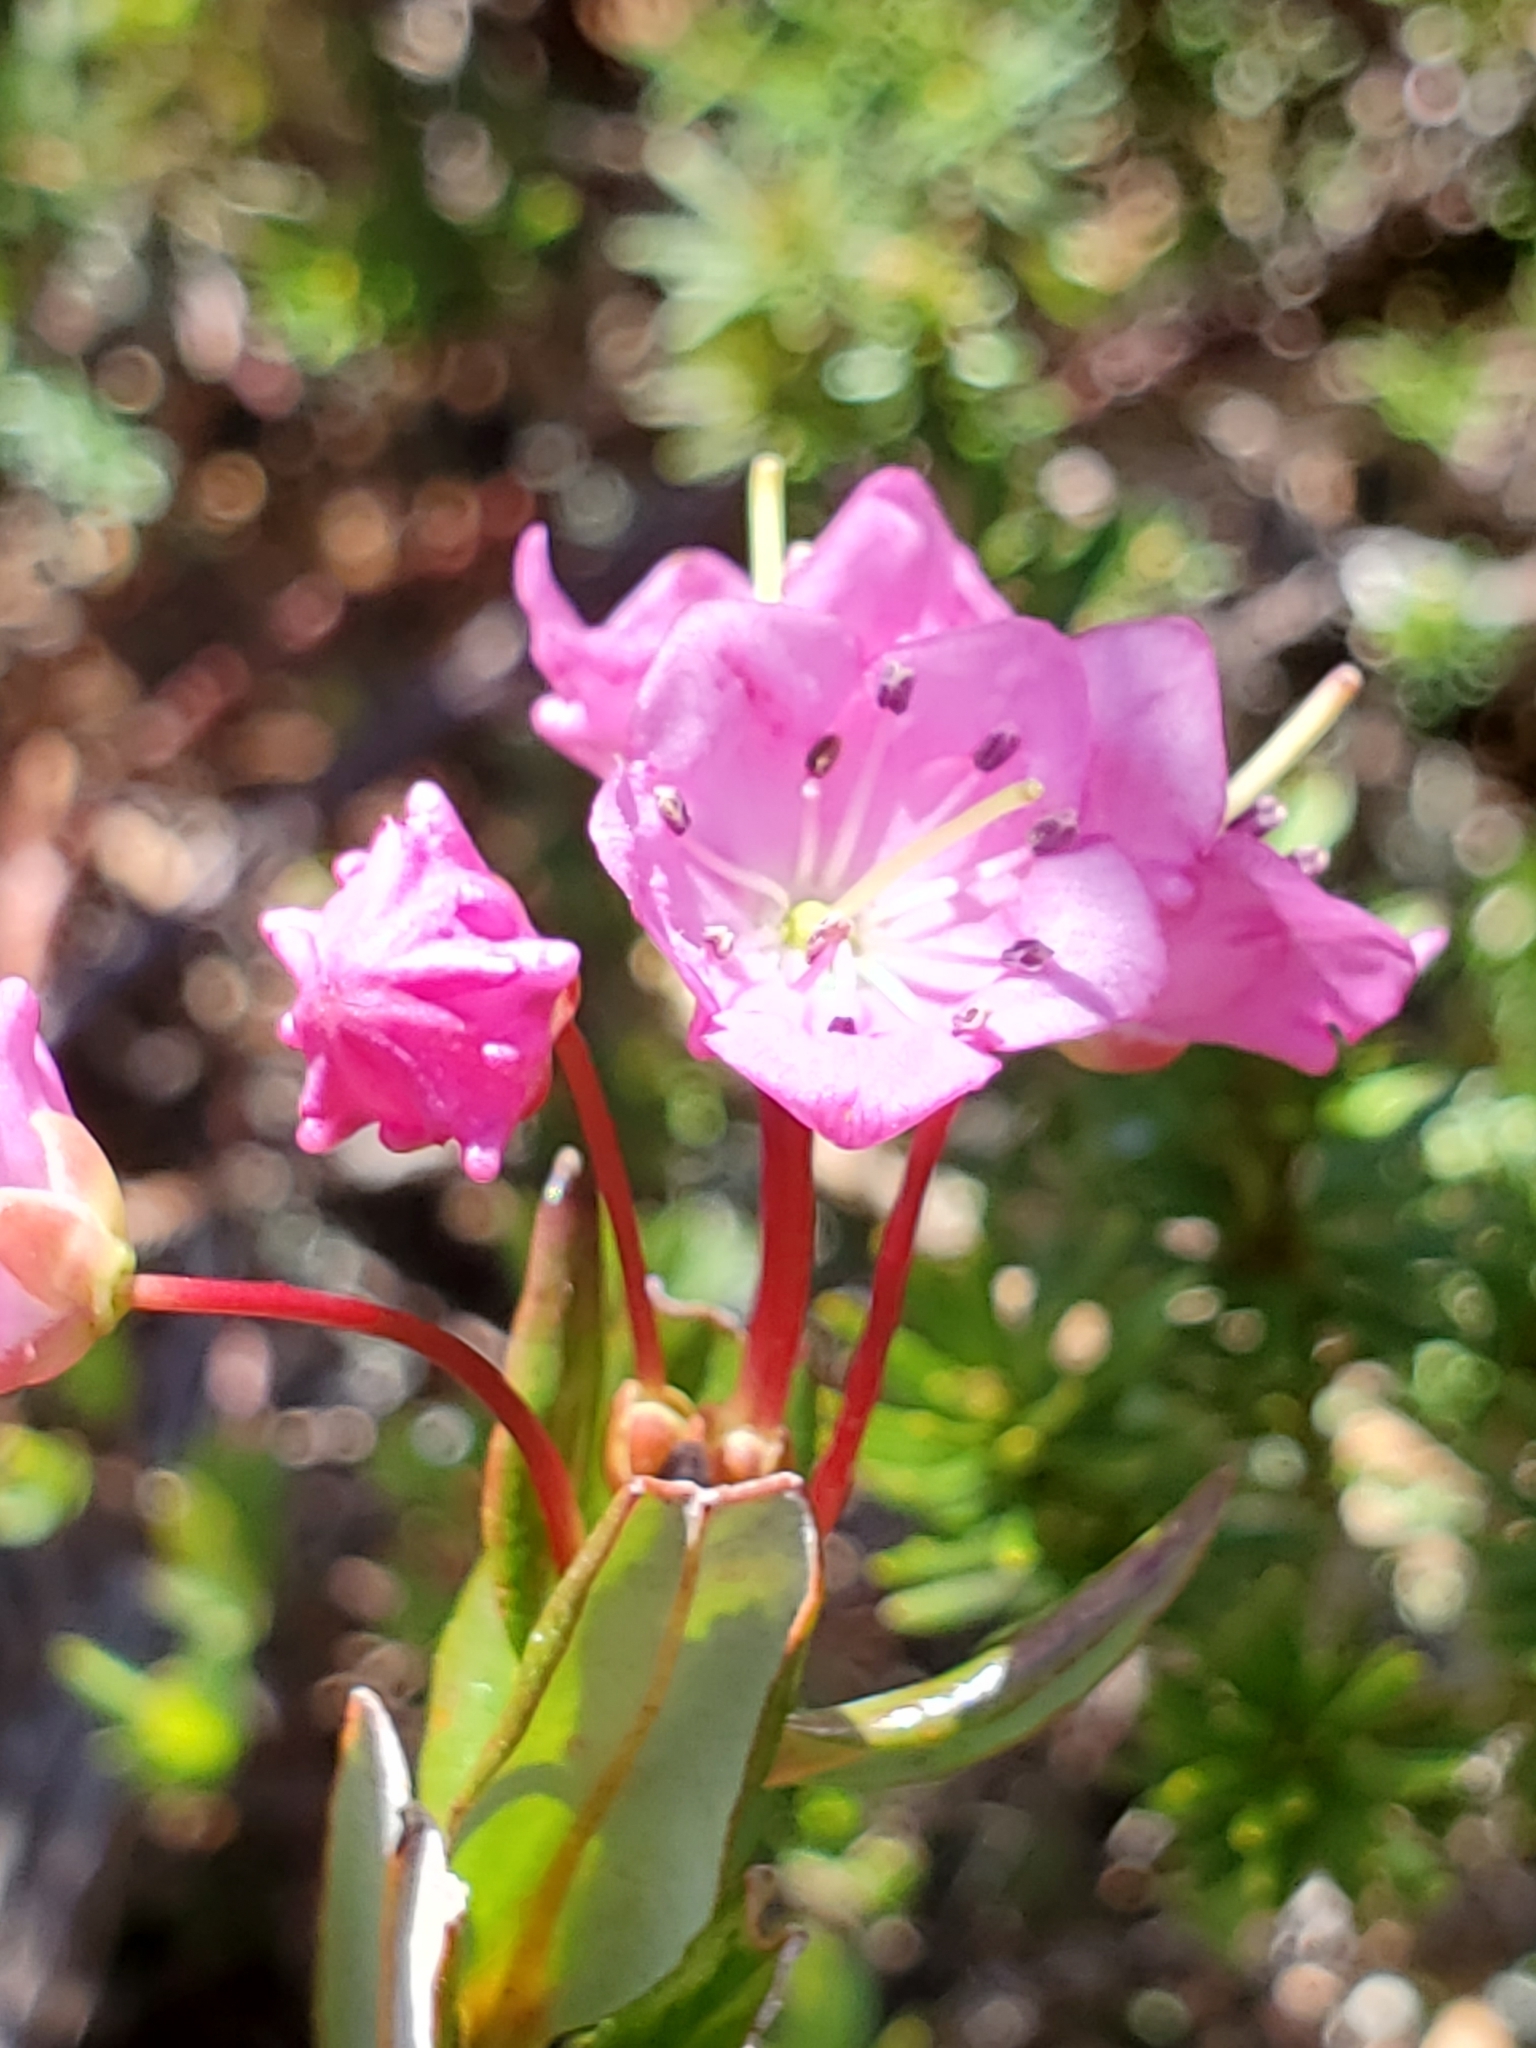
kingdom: Plantae
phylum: Tracheophyta
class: Magnoliopsida
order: Ericales
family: Ericaceae
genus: Kalmia
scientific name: Kalmia microphylla
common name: Alpine bog laurel
